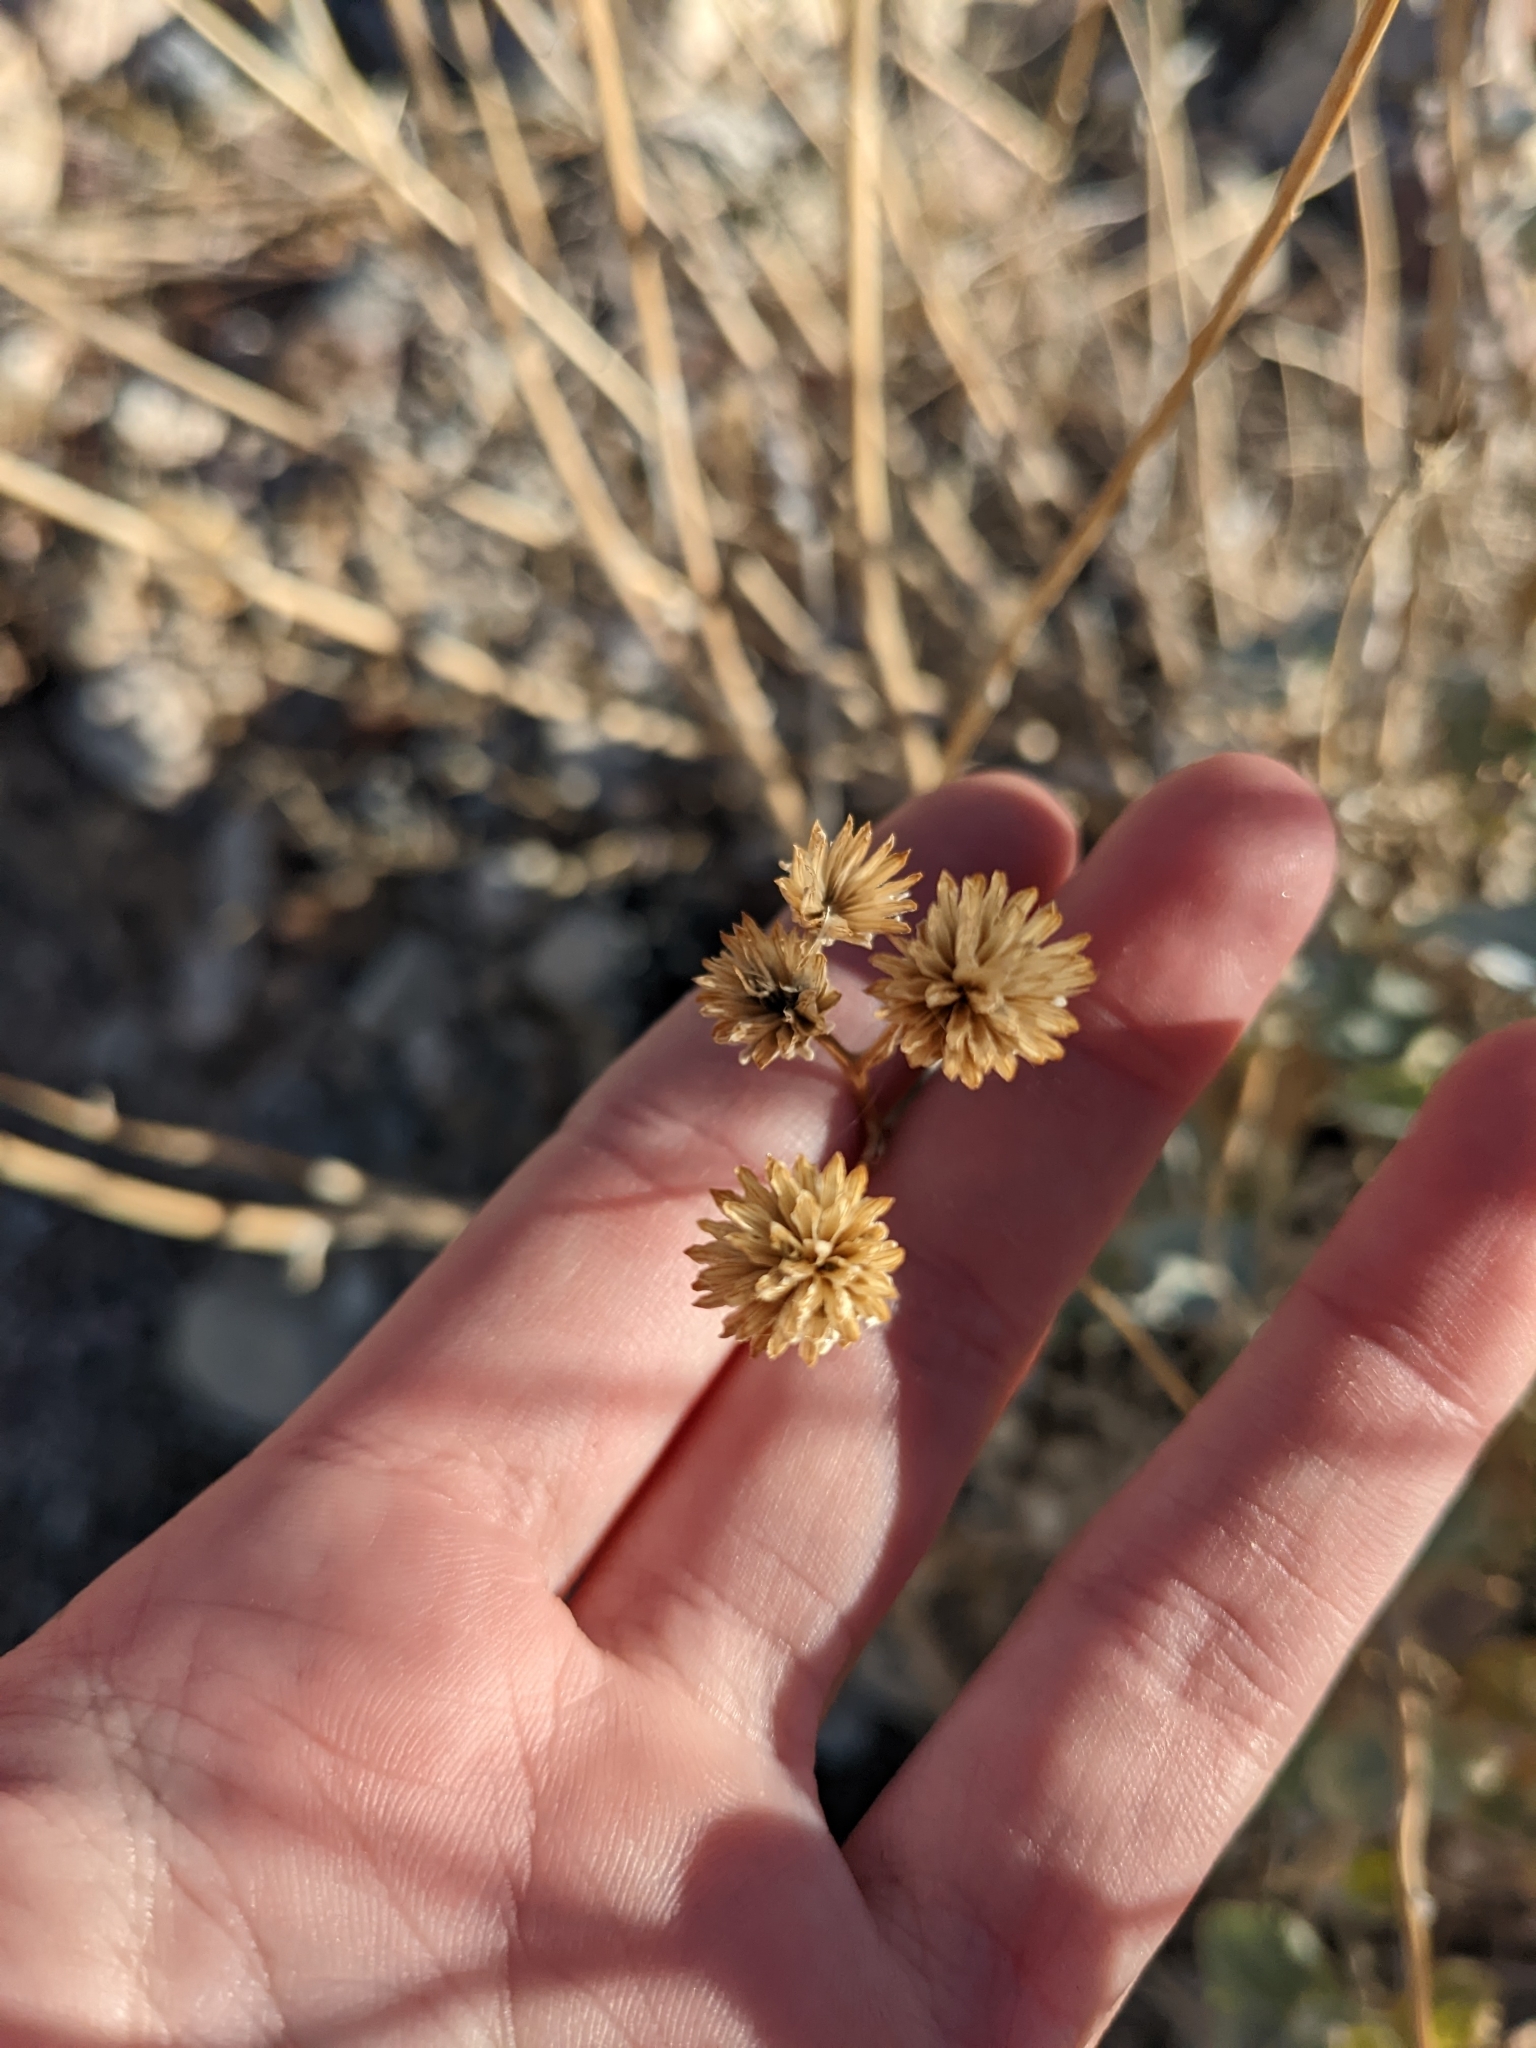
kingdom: Plantae
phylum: Tracheophyta
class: Magnoliopsida
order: Asterales
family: Asteraceae
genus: Bahiopsis
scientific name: Bahiopsis reticulata
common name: Death valley goldeneye
